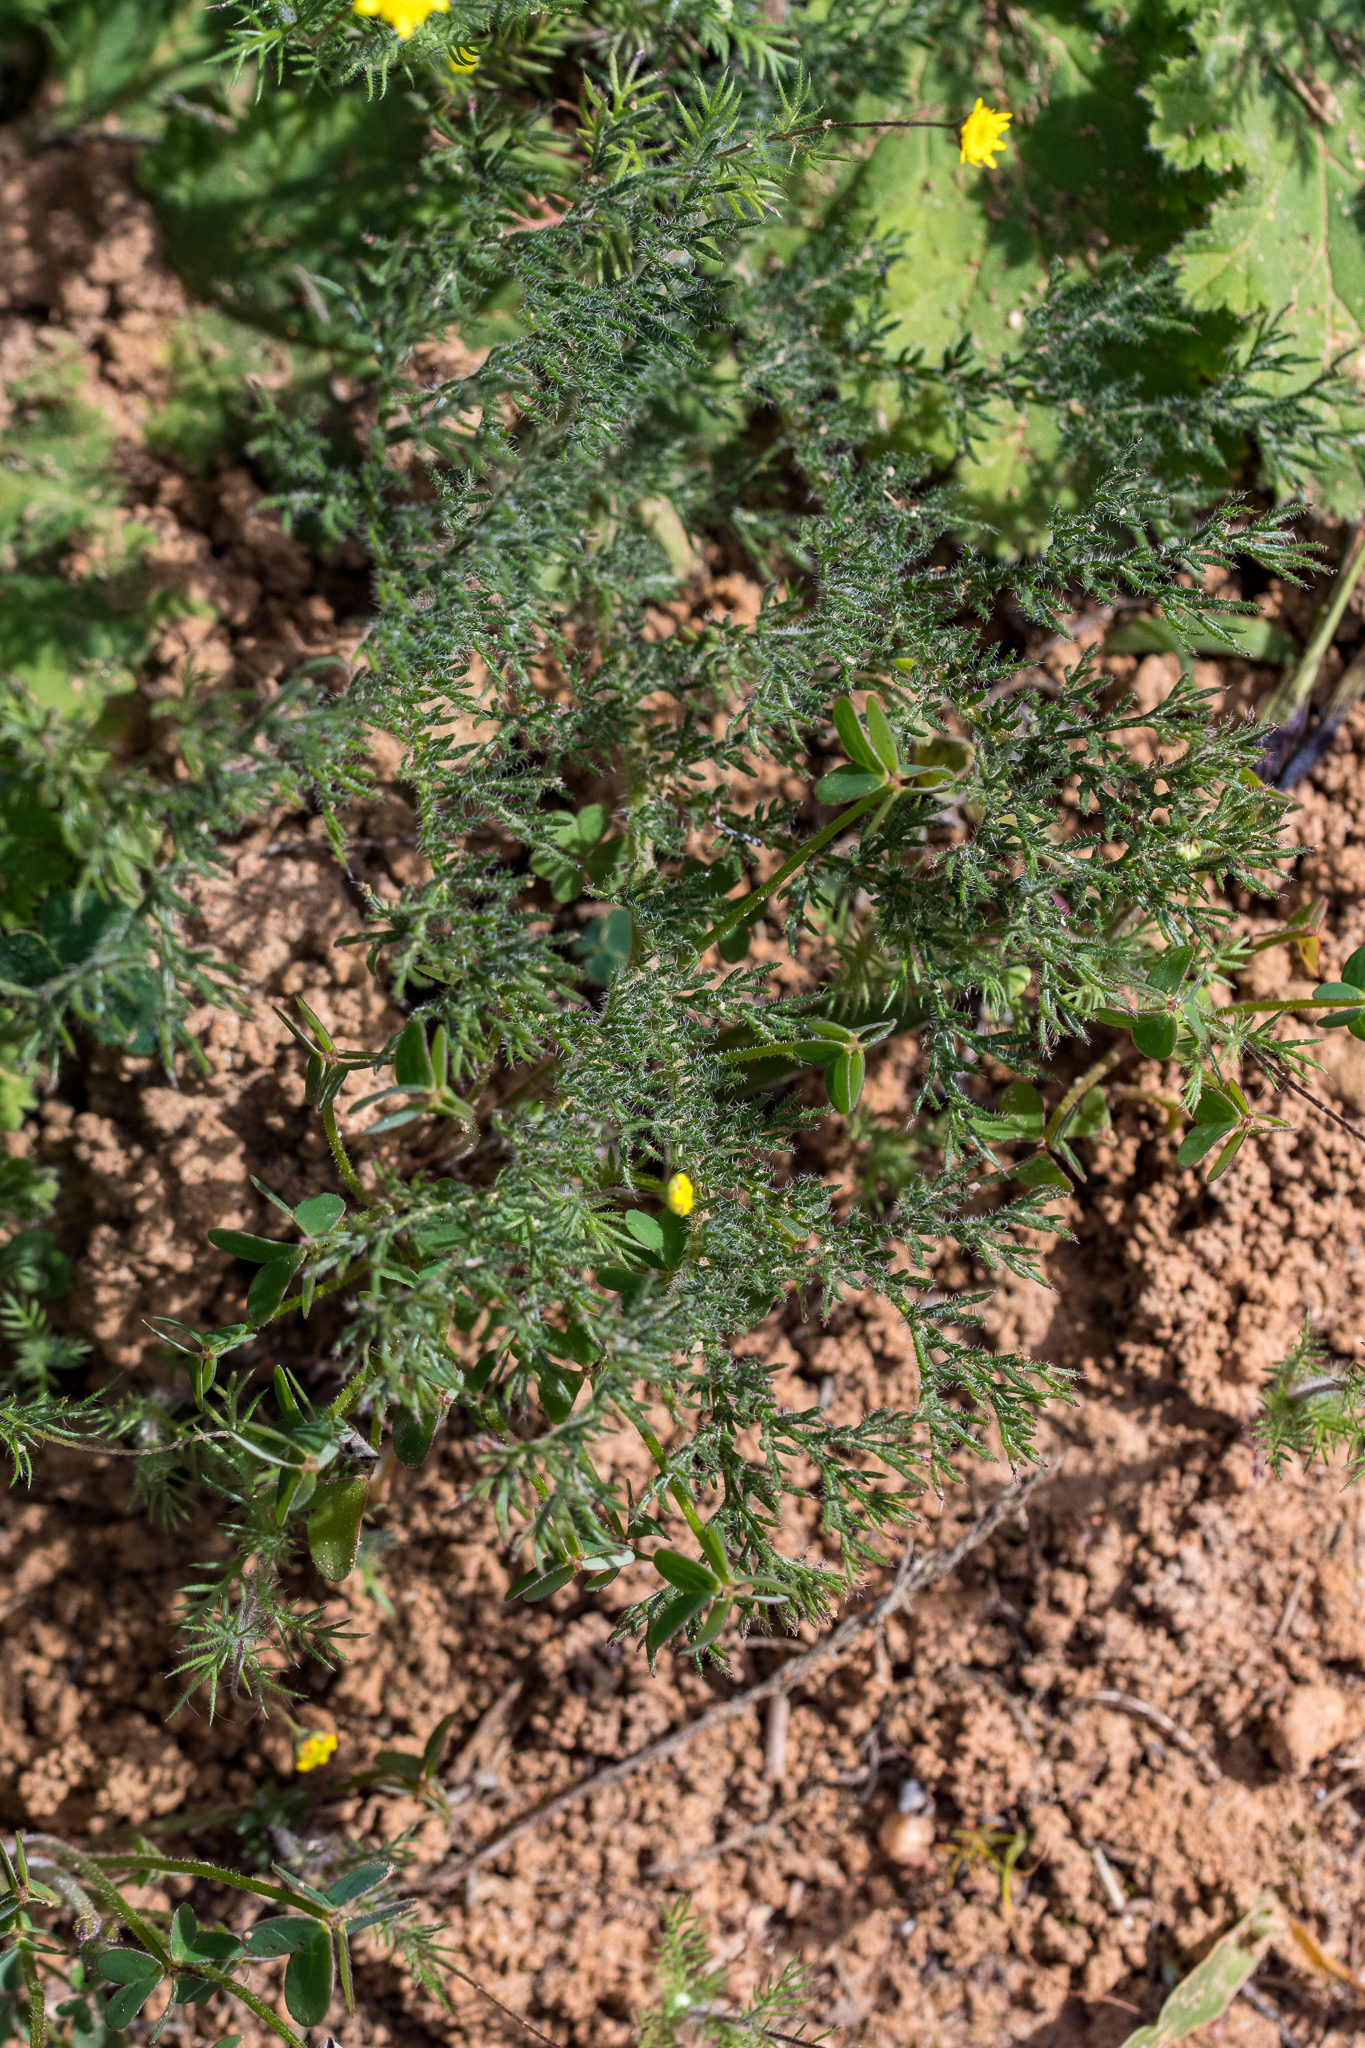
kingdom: Plantae
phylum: Tracheophyta
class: Magnoliopsida
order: Geraniales
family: Geraniaceae
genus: Pelargonium
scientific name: Pelargonium triste
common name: Night-scent pelargonium
